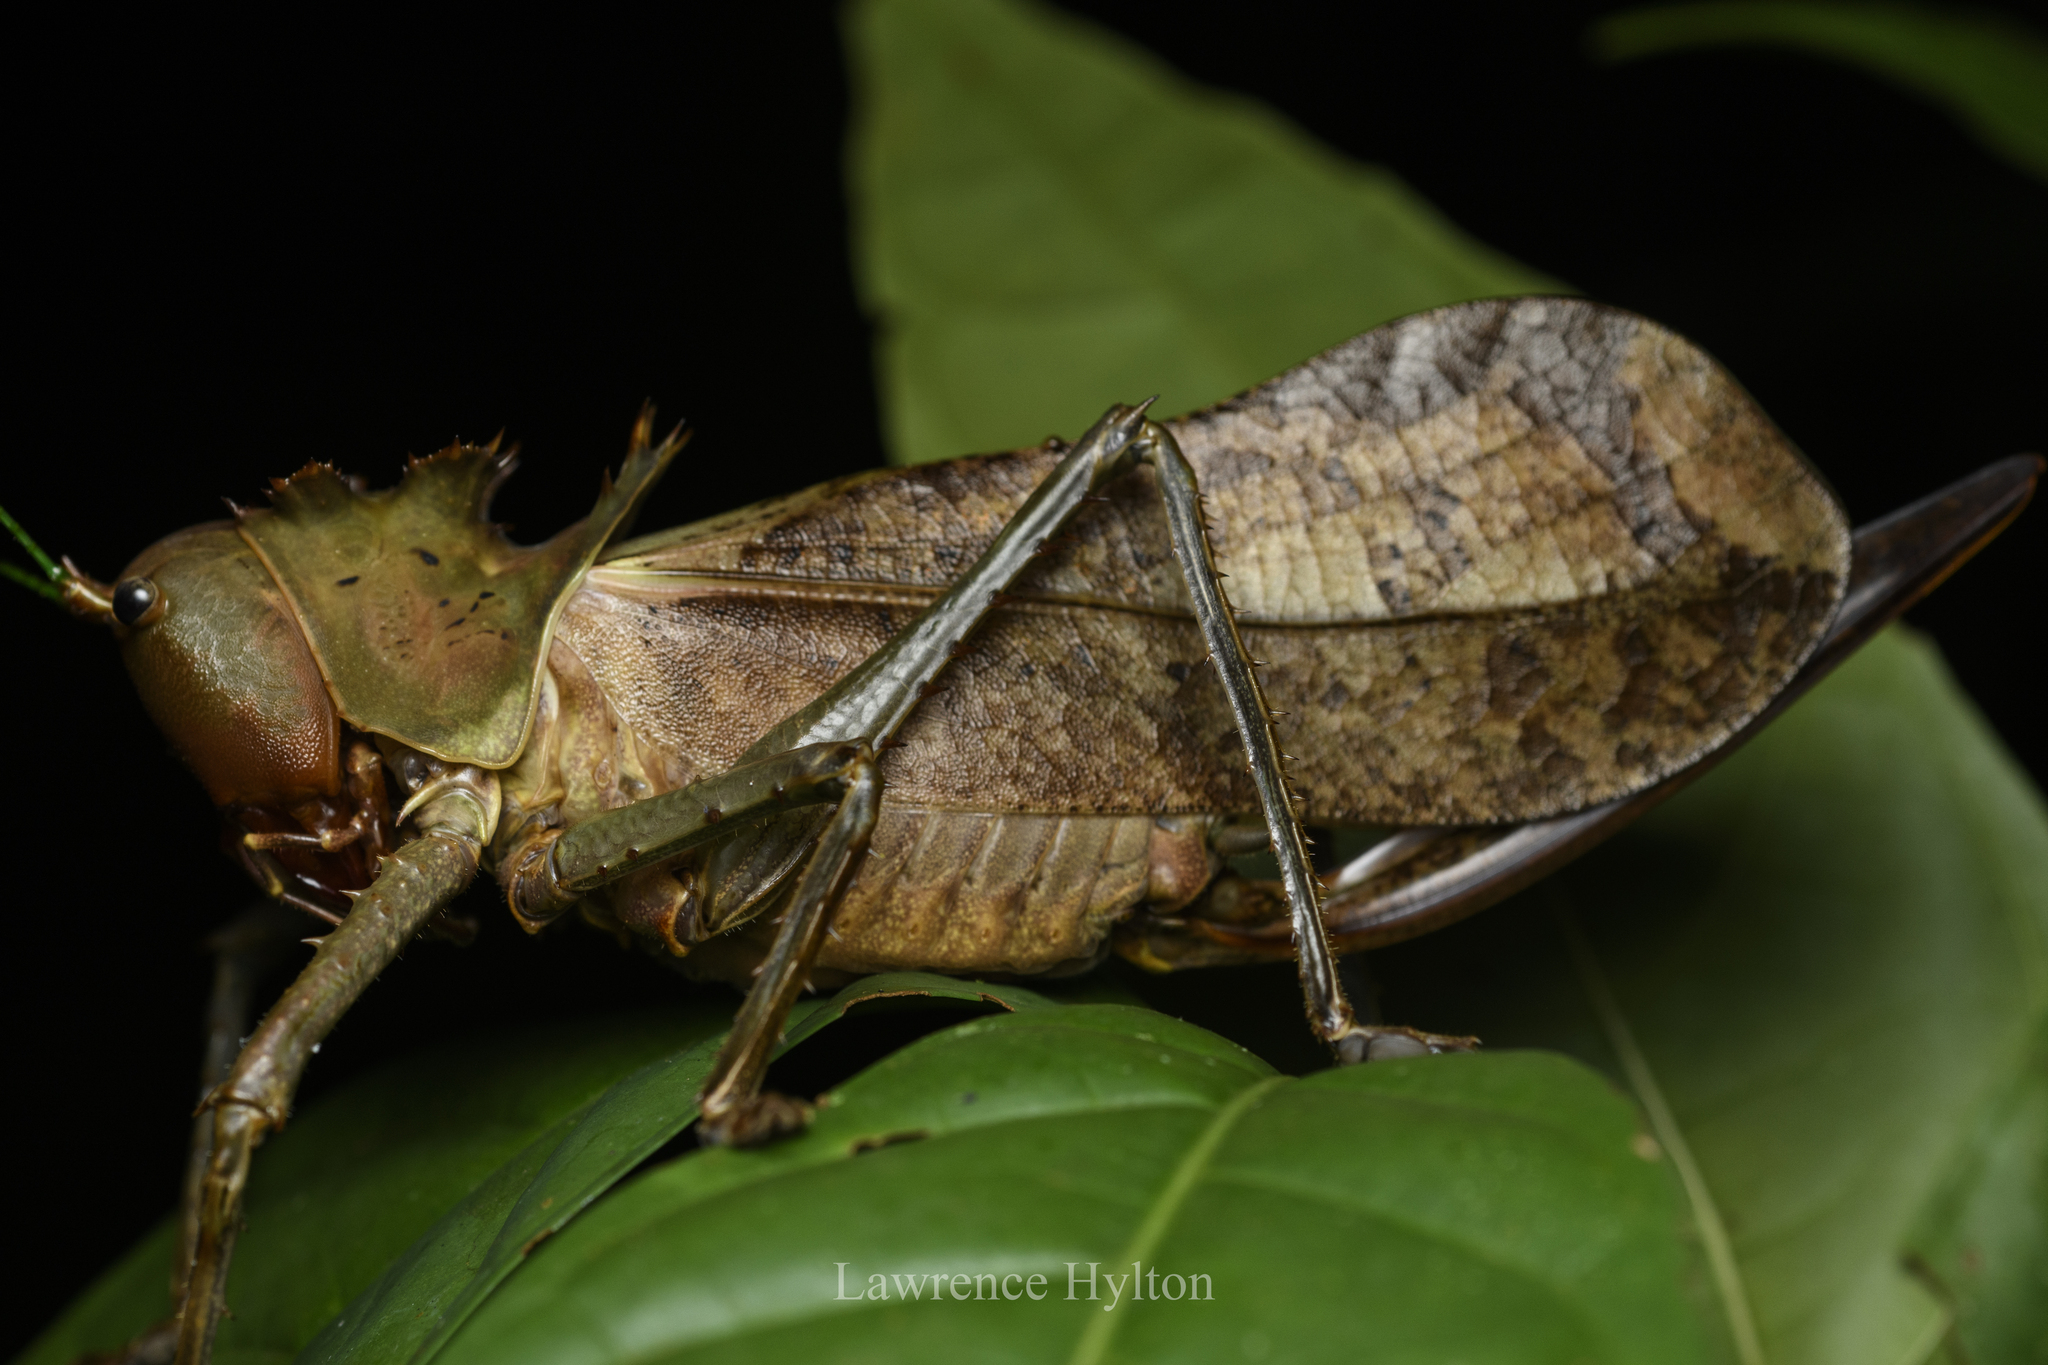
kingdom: Animalia
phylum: Arthropoda
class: Insecta
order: Orthoptera
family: Tettigoniidae
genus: Lesina
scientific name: Lesina intermedia
